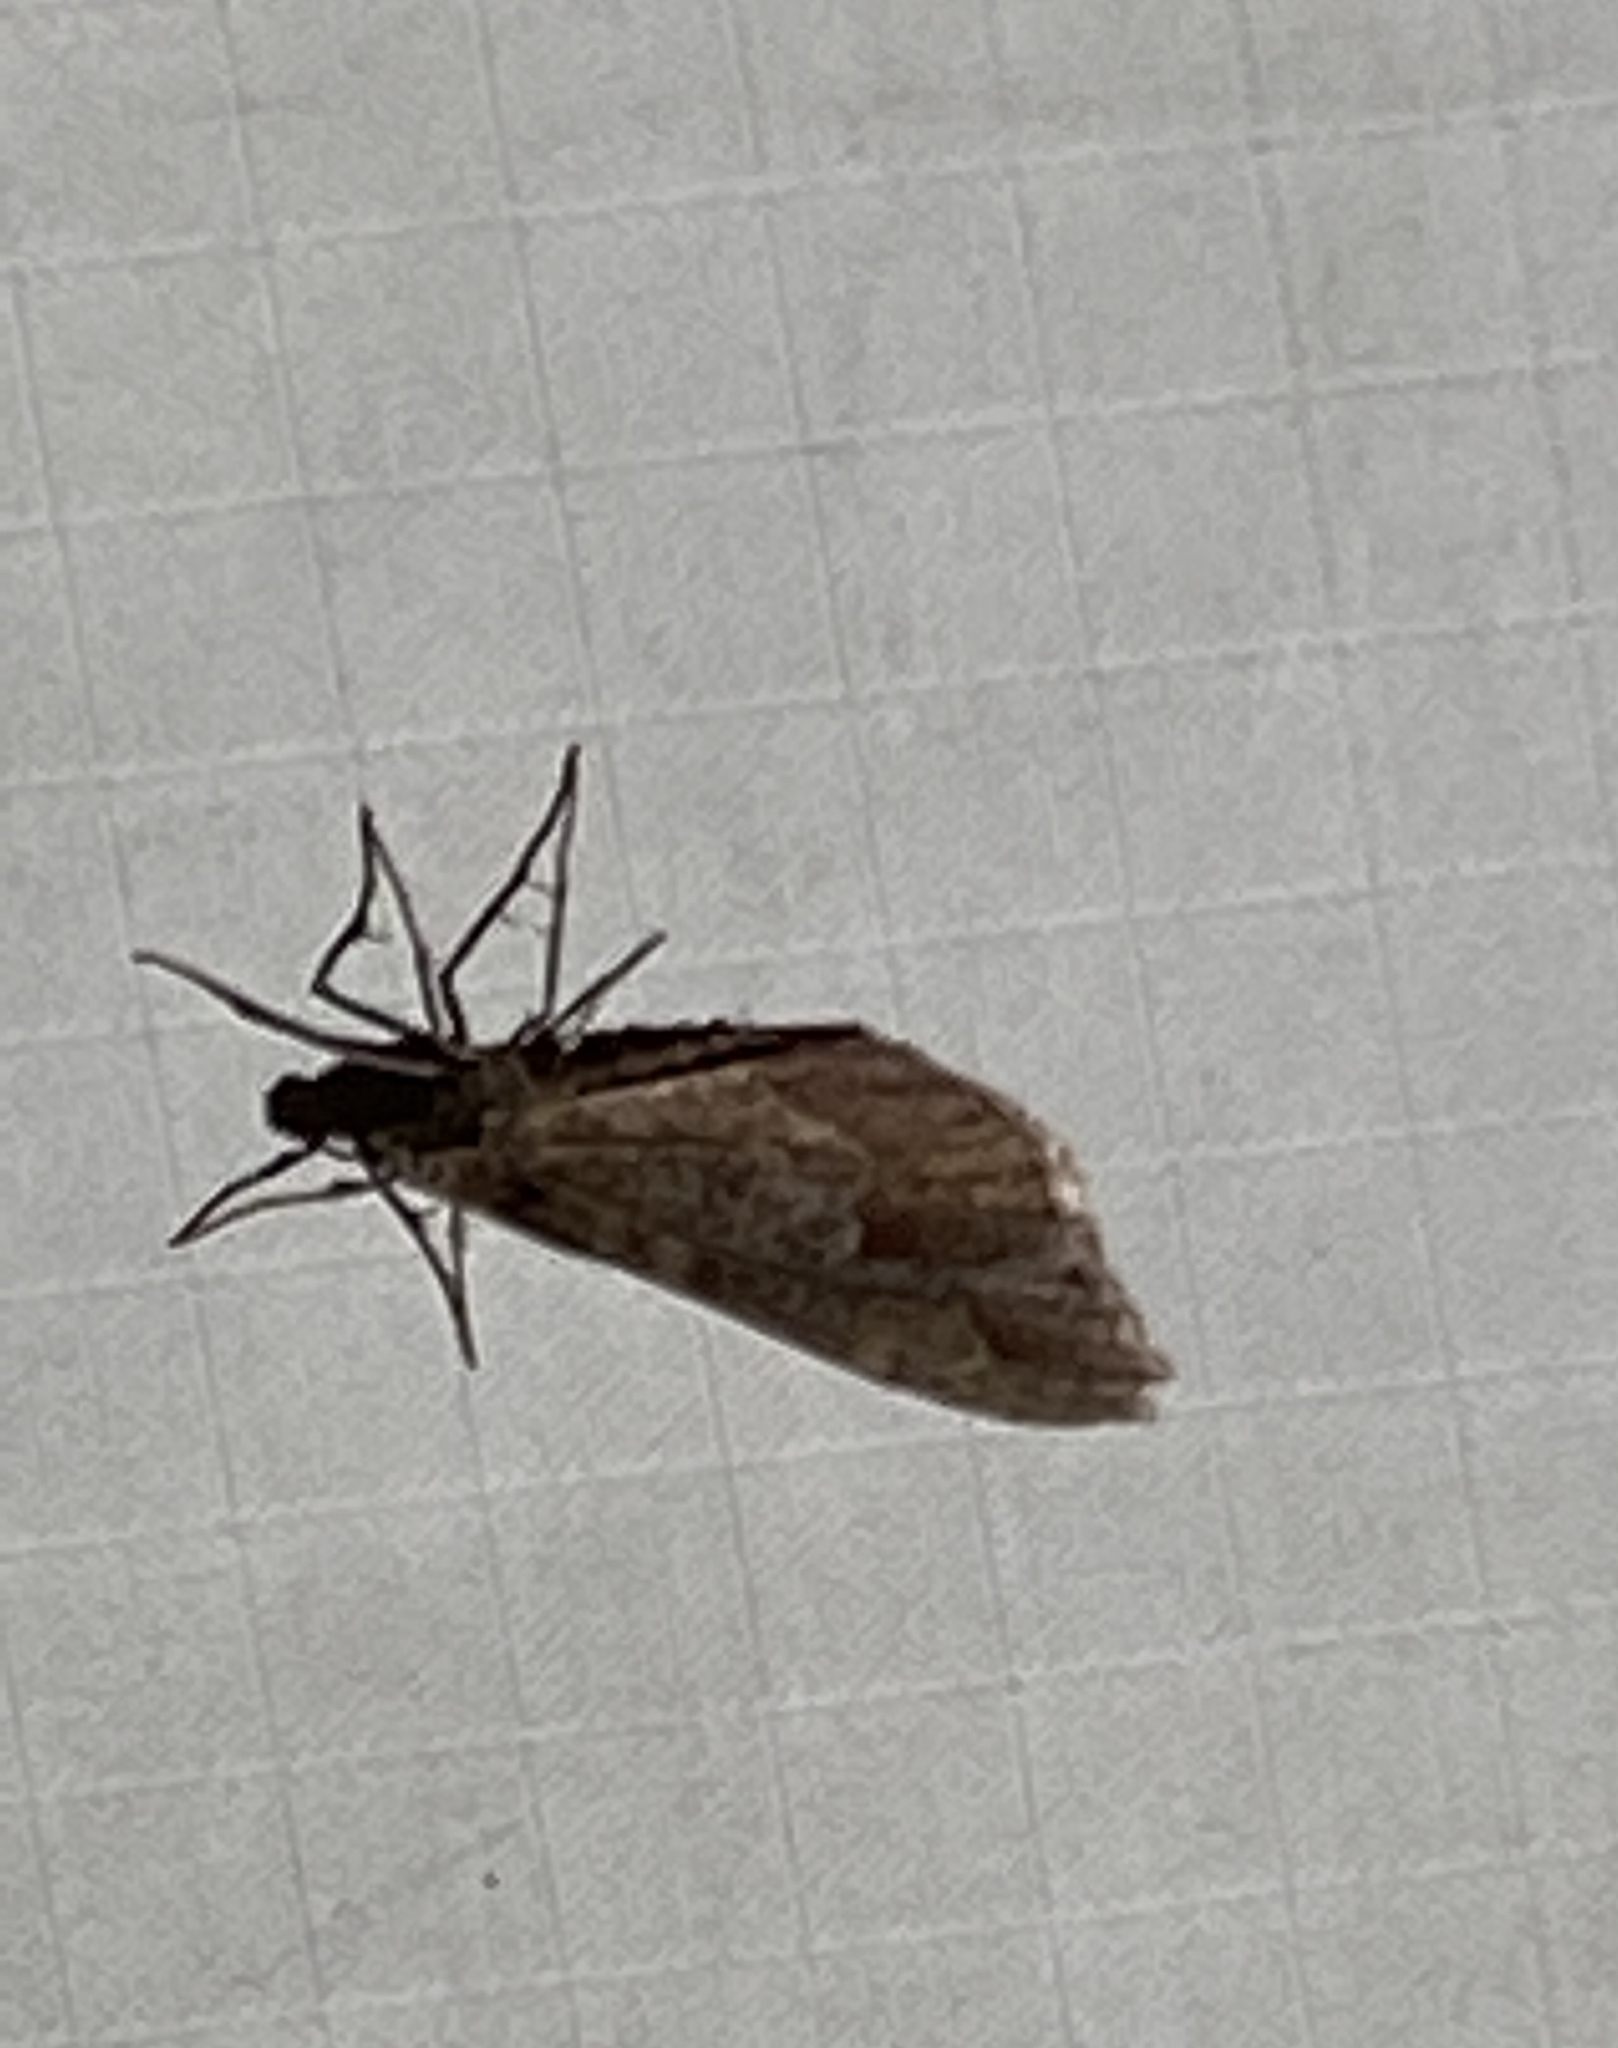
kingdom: Animalia
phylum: Arthropoda
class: Insecta
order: Lepidoptera
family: Geometridae
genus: Stamnodes
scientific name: Stamnodes affiliata
